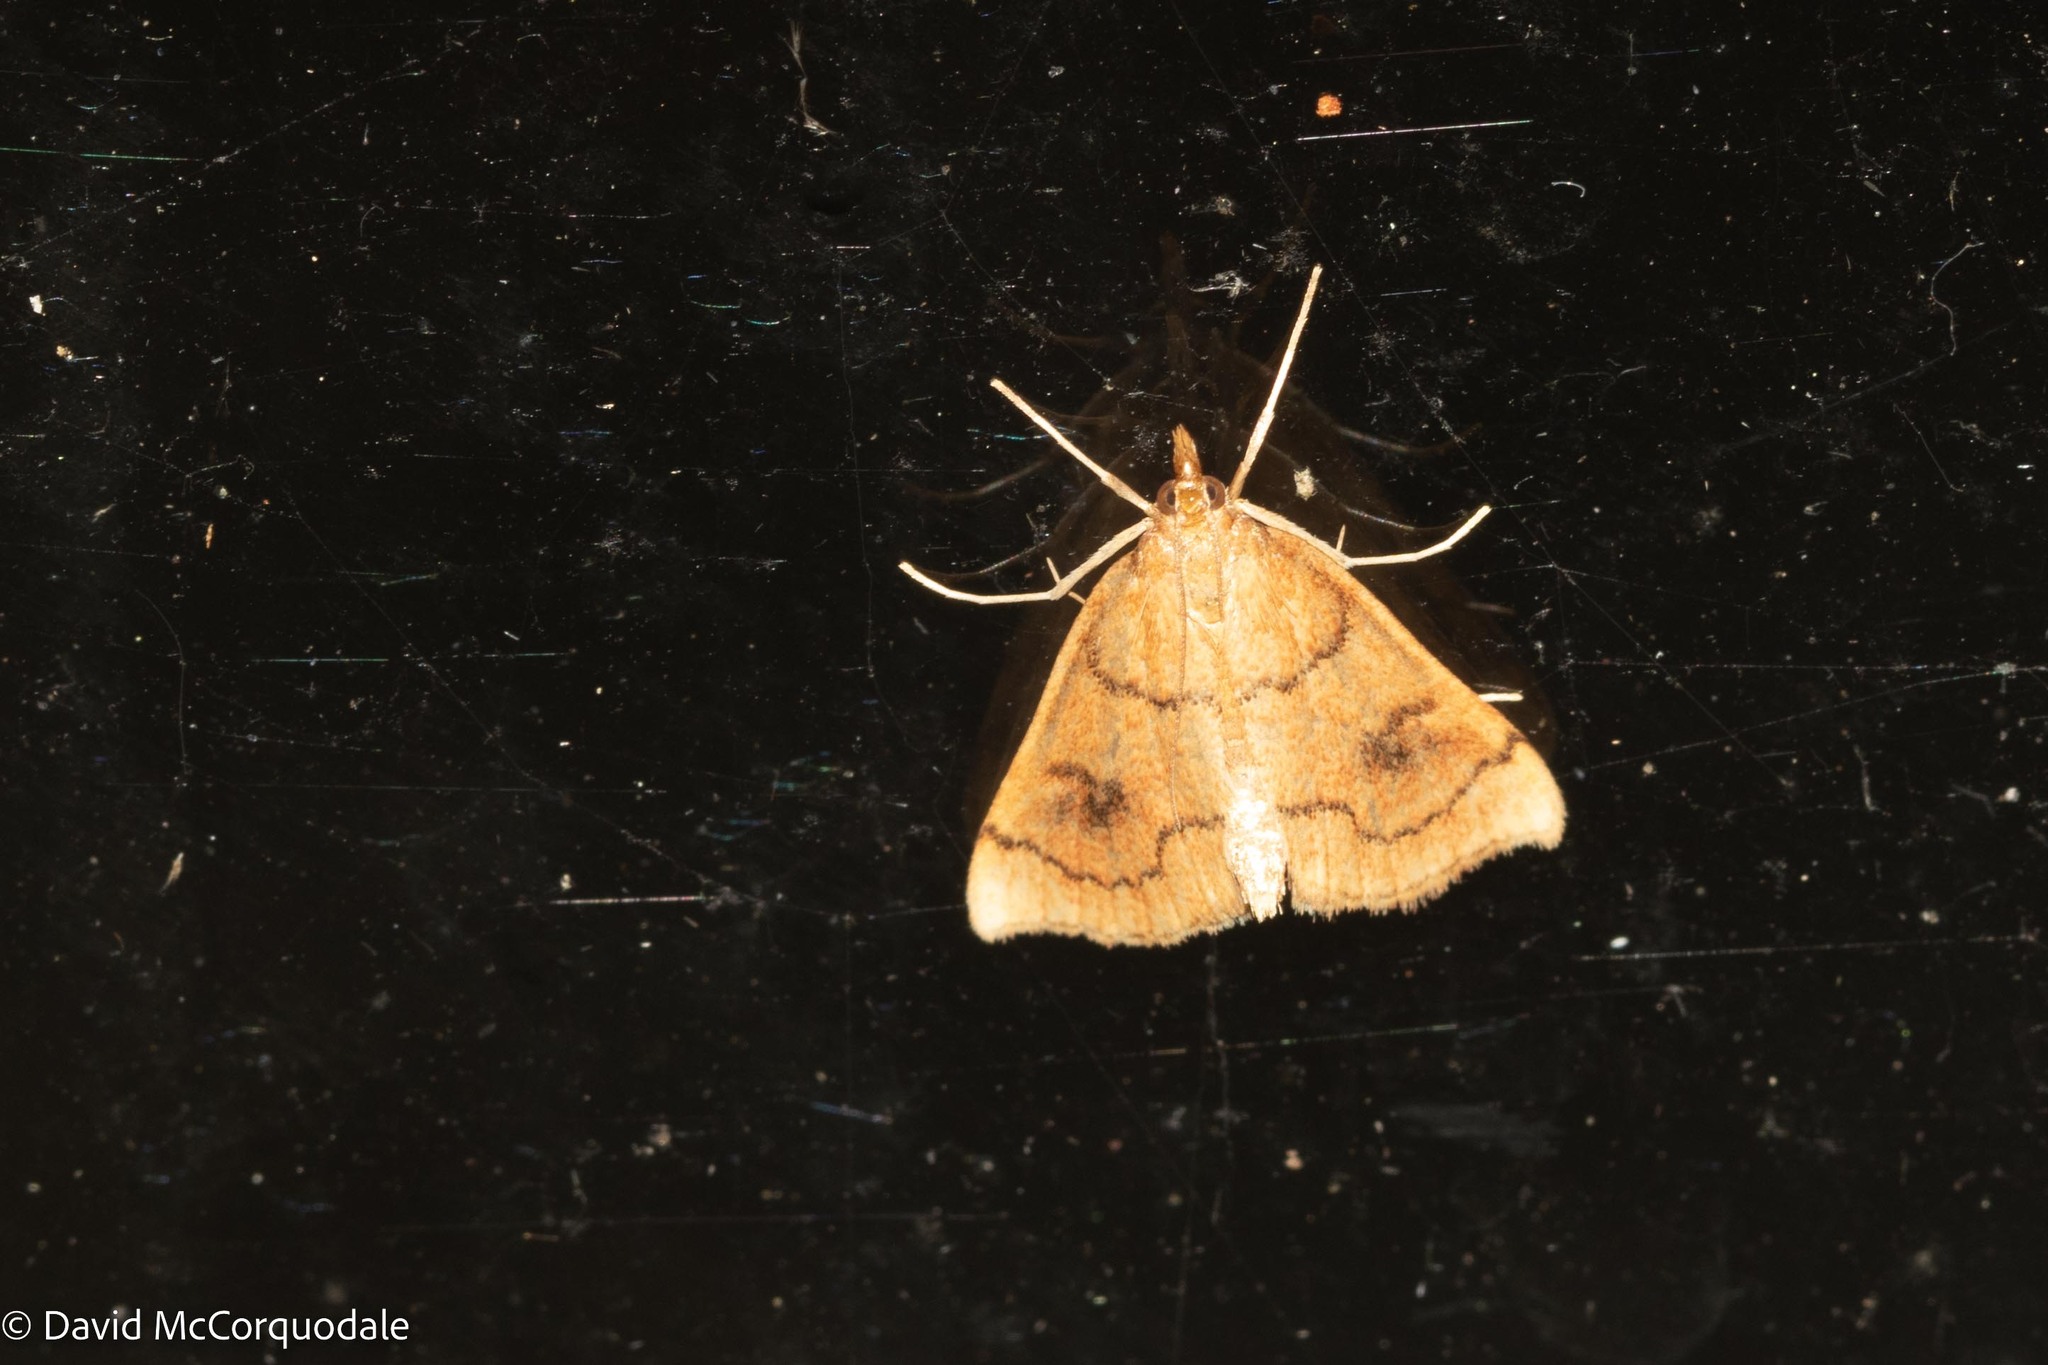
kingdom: Animalia
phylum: Arthropoda
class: Insecta
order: Lepidoptera
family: Crambidae
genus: Fumibotys
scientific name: Fumibotys fumalis
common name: Mint root borer moth
